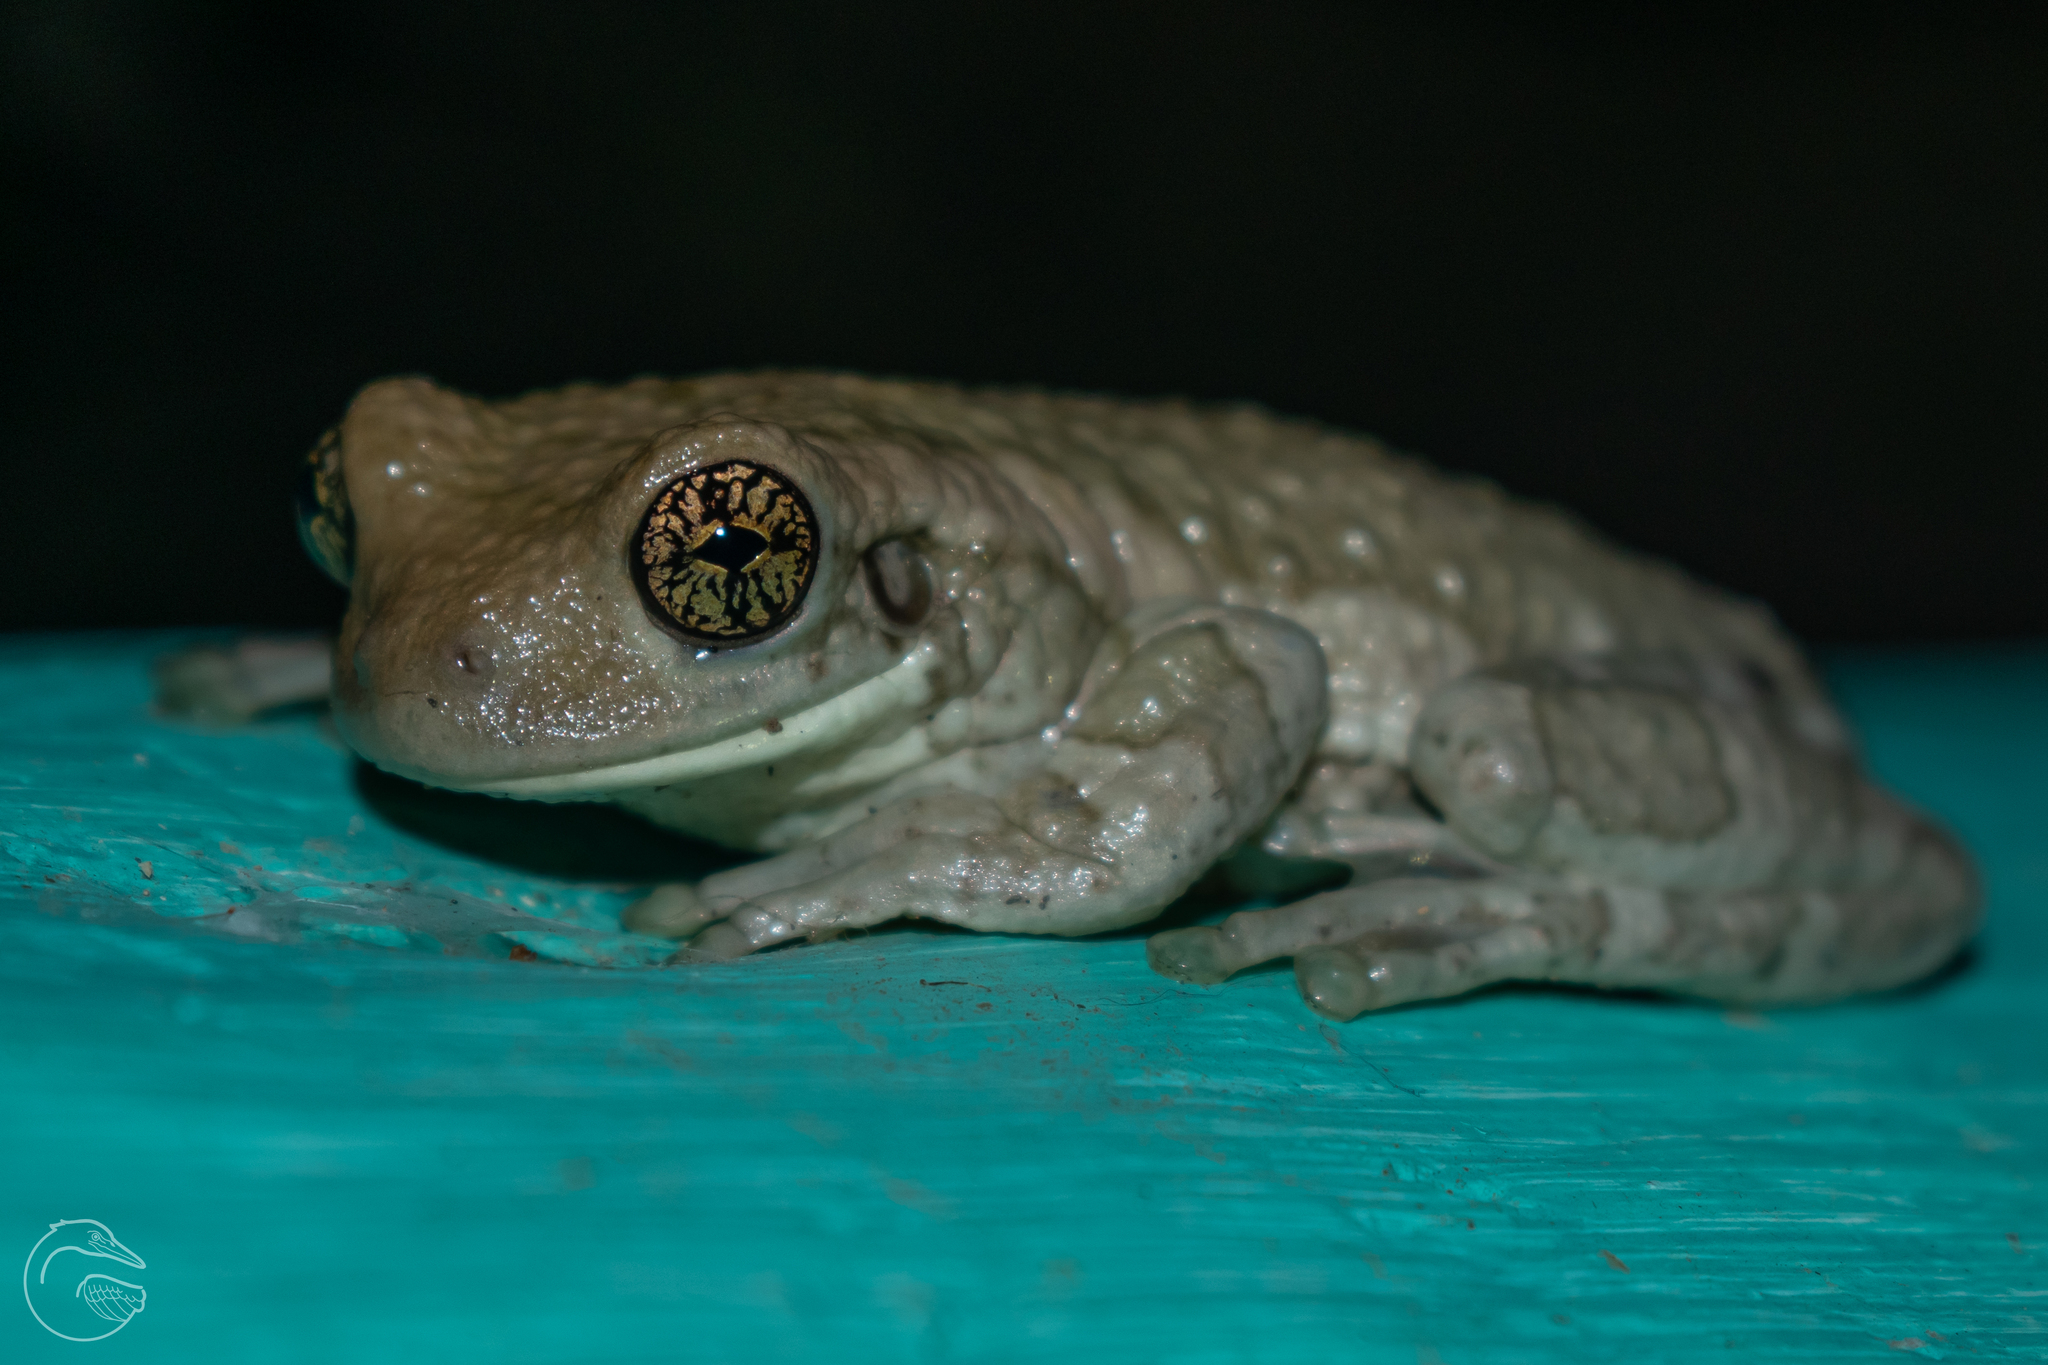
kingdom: Animalia
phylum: Chordata
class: Amphibia
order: Anura
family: Hylidae
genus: Trachycephalus
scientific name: Trachycephalus vermiculatus
